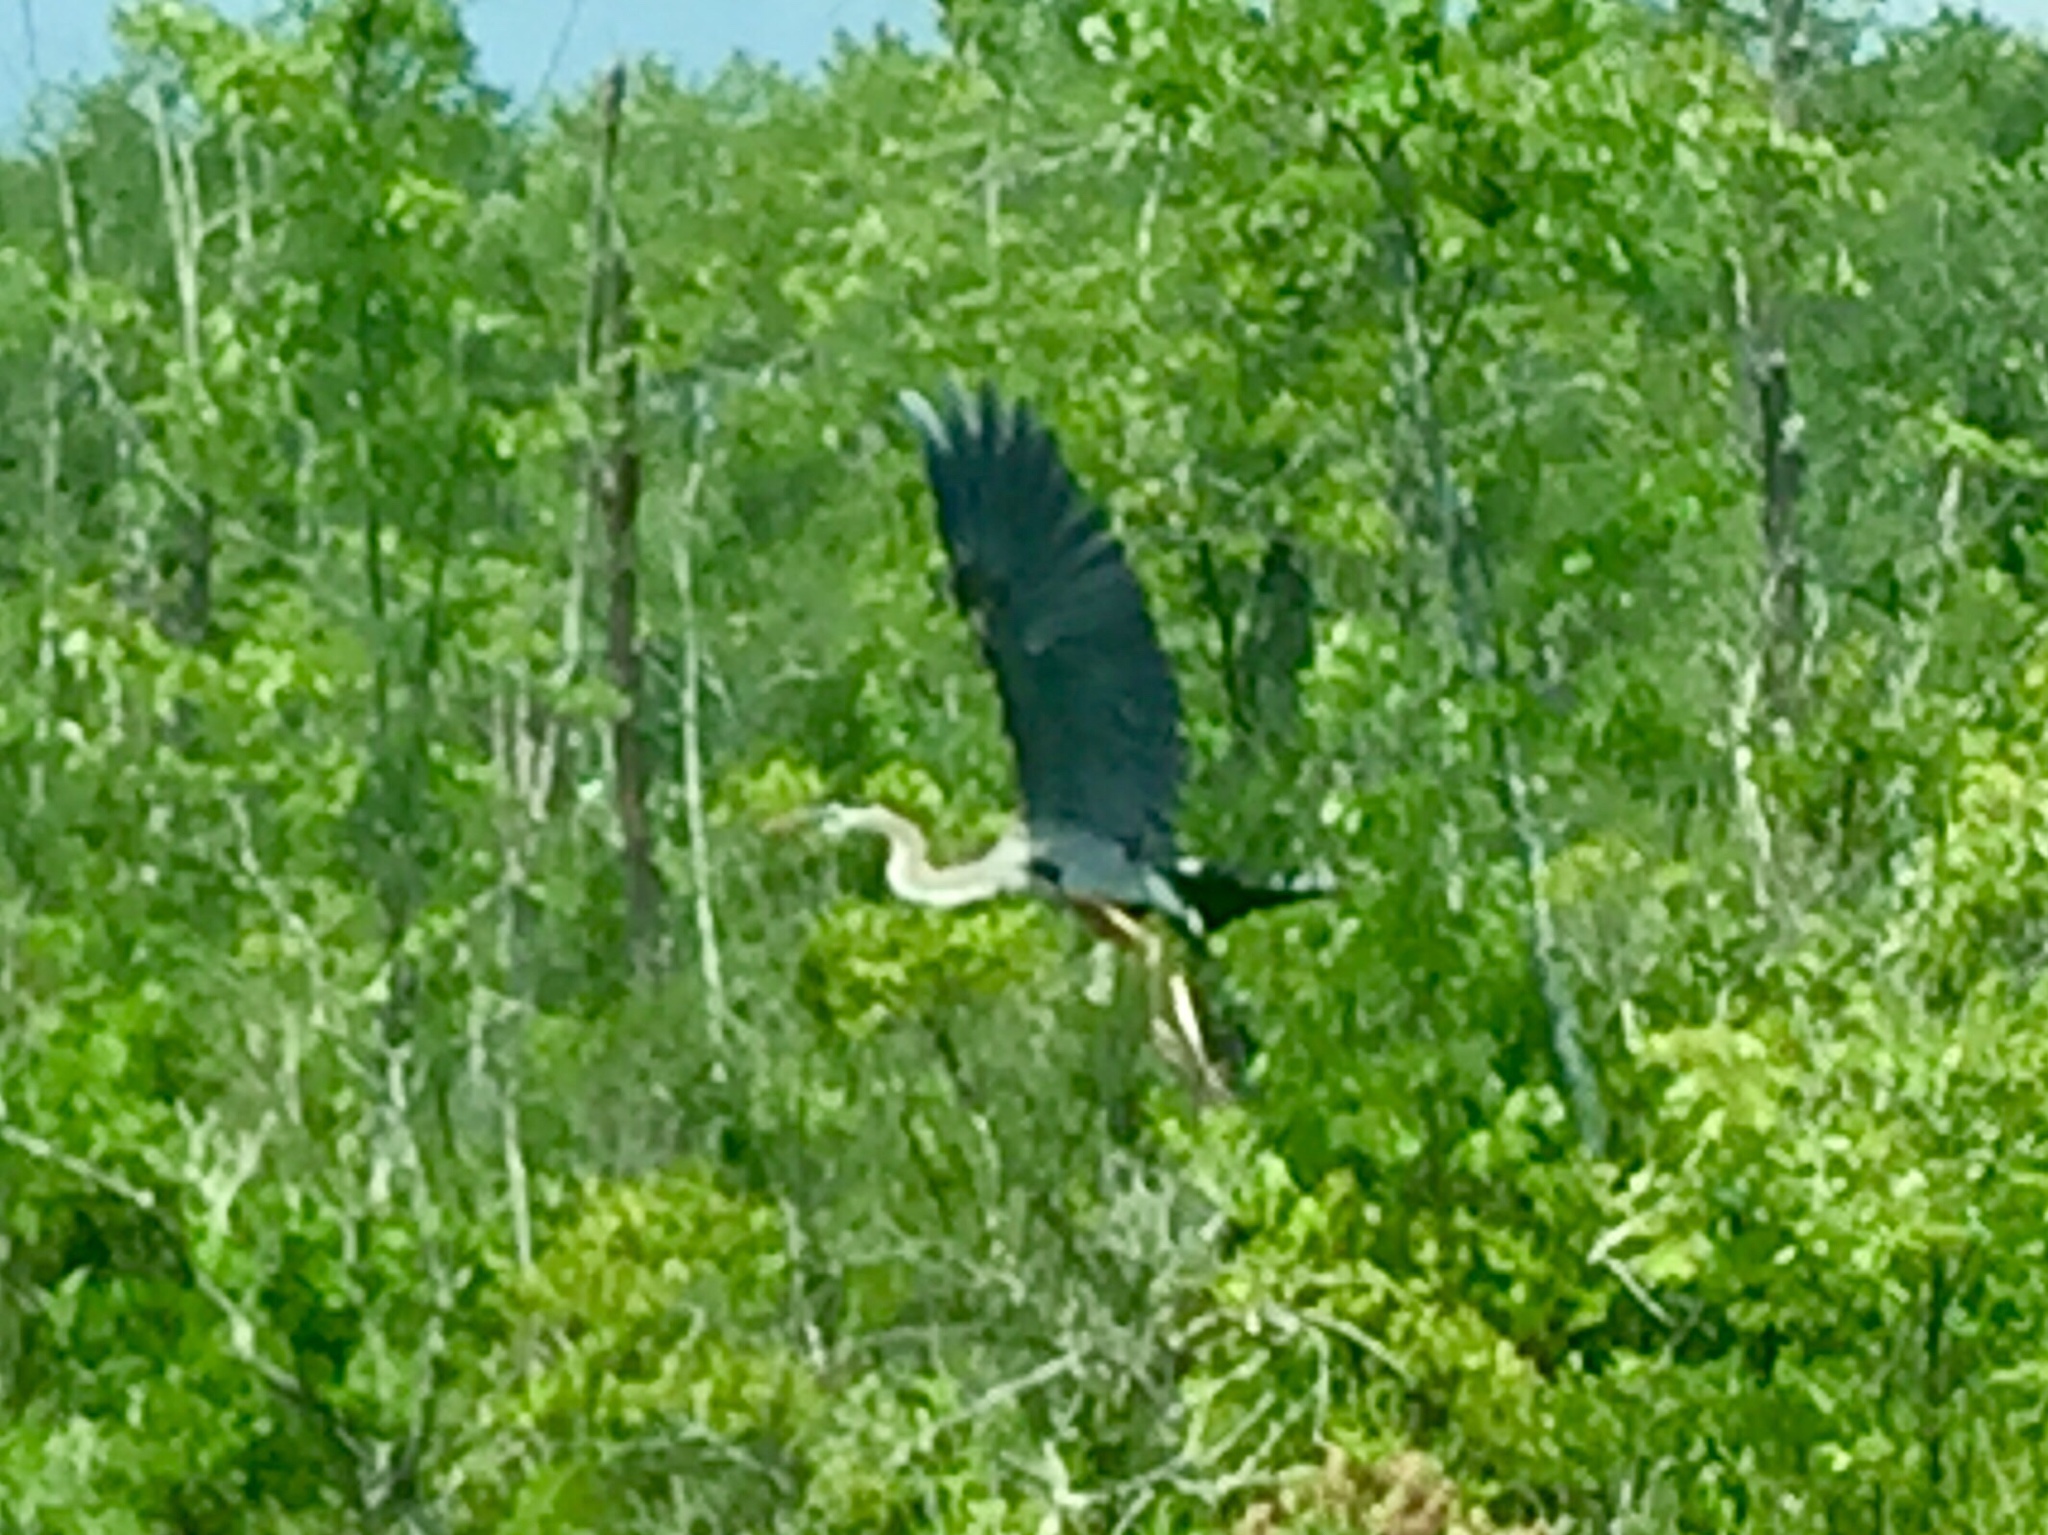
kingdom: Animalia
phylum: Chordata
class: Aves
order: Pelecaniformes
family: Ardeidae
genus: Ardea
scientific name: Ardea herodias
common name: Great blue heron
